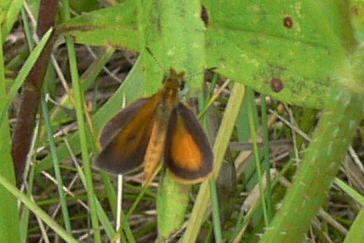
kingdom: Animalia
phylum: Arthropoda
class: Insecta
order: Lepidoptera
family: Hesperiidae
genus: Ancyloxypha
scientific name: Ancyloxypha numitor
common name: Least skipper
